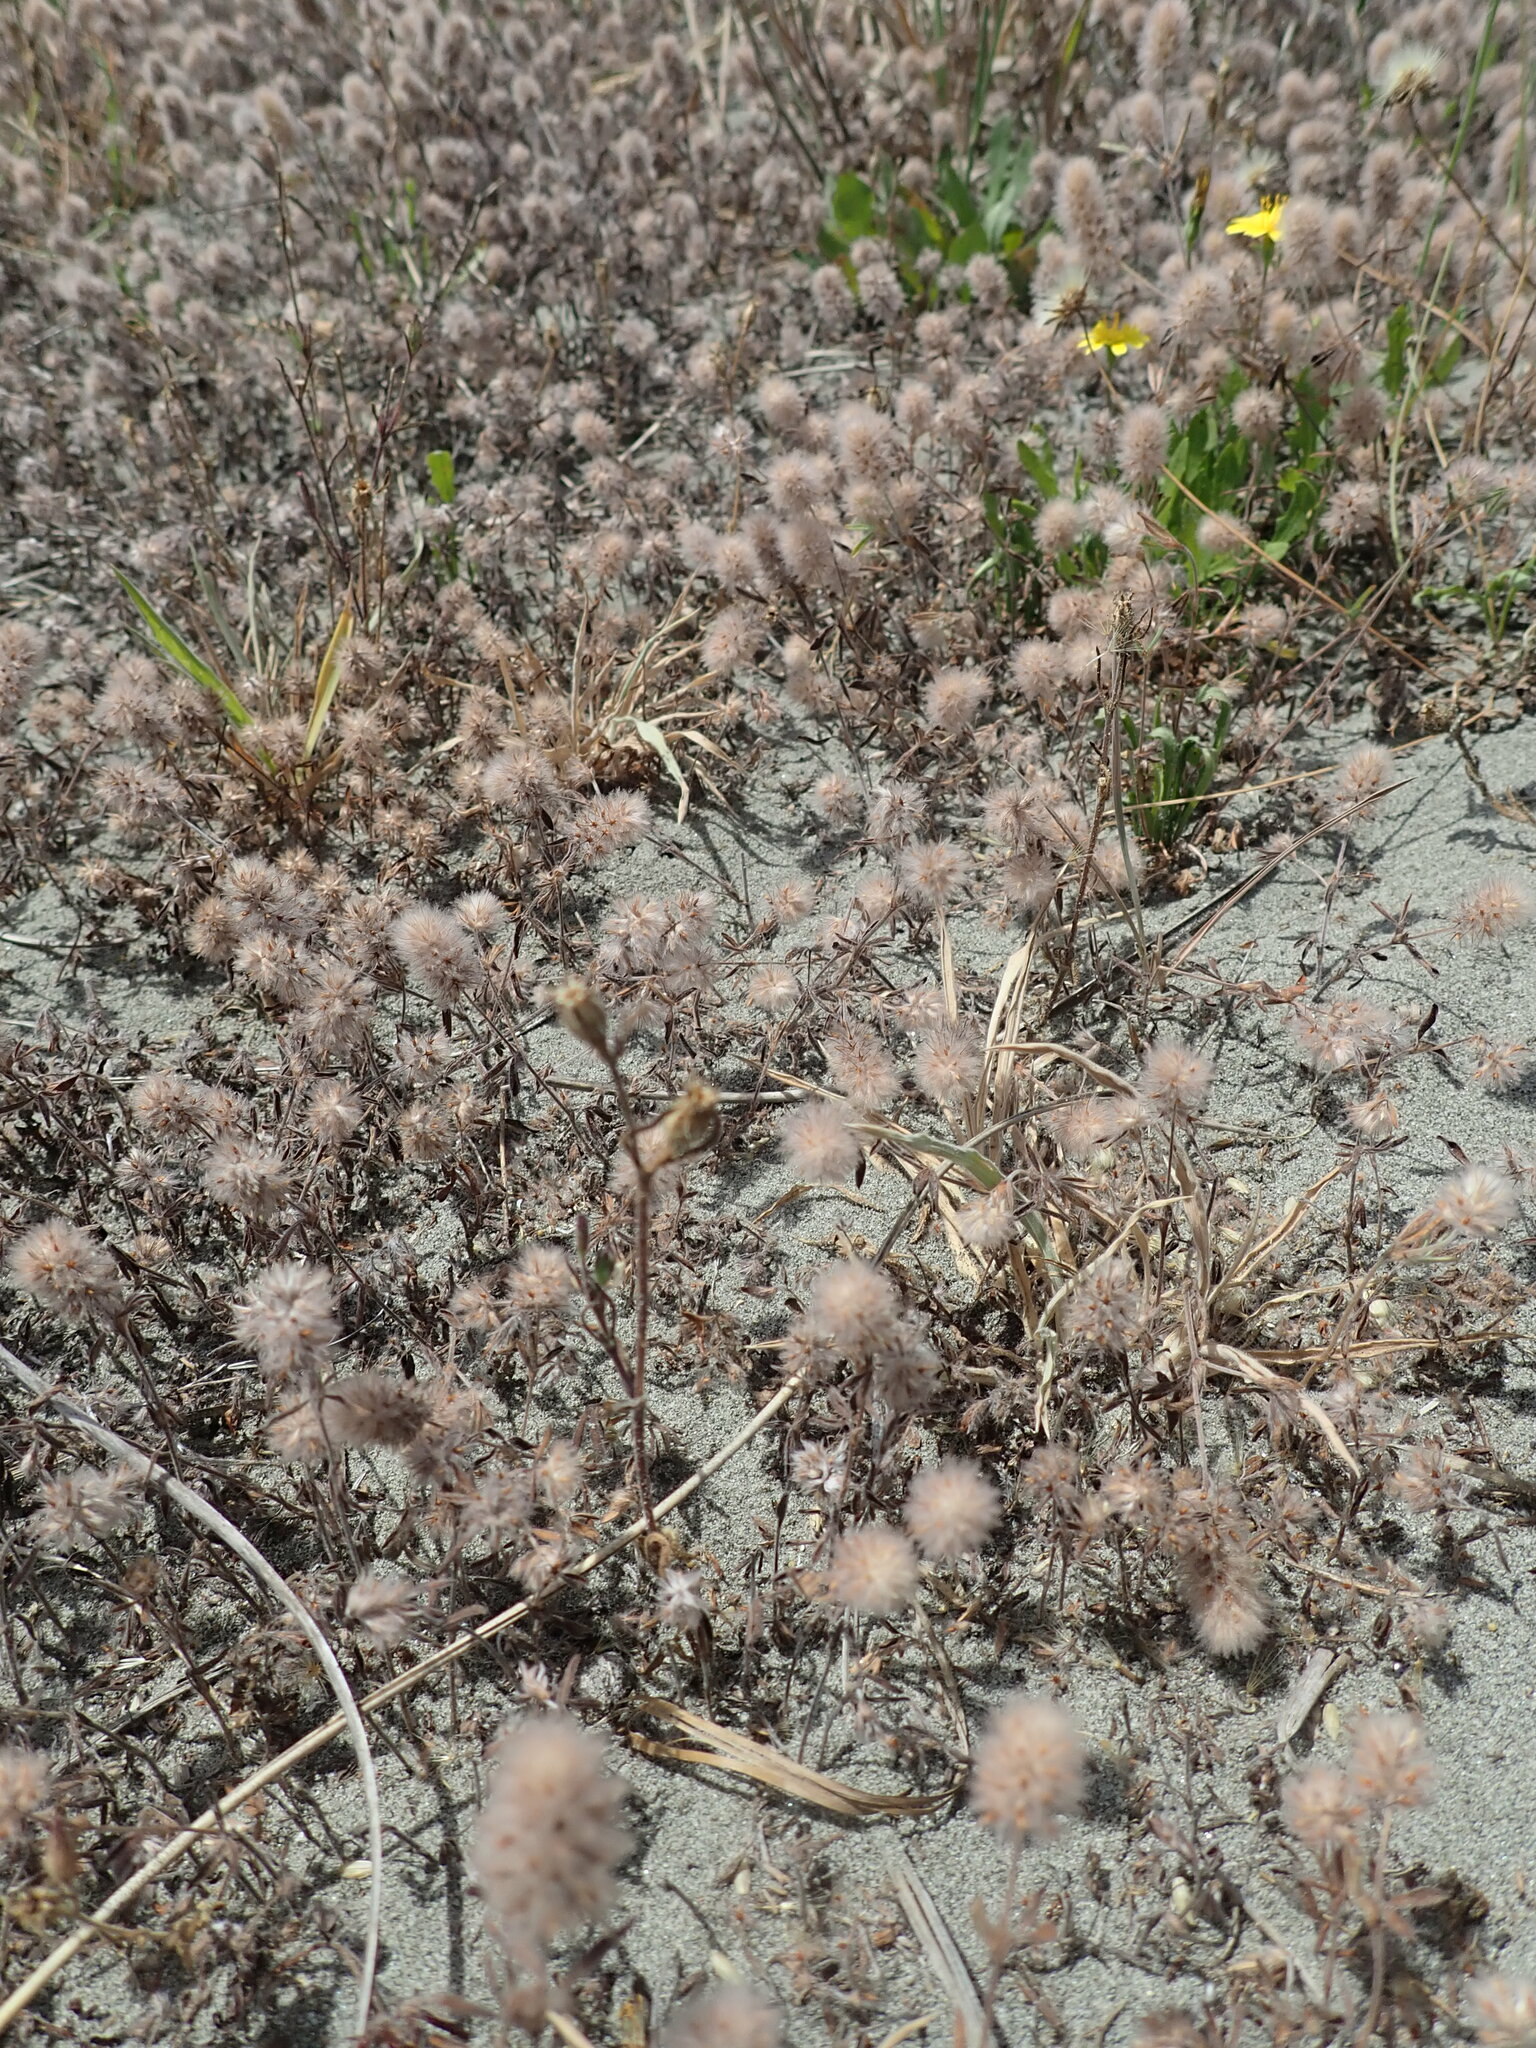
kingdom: Plantae
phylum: Tracheophyta
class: Magnoliopsida
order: Fabales
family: Fabaceae
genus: Trifolium
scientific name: Trifolium arvense
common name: Hare's-foot clover
